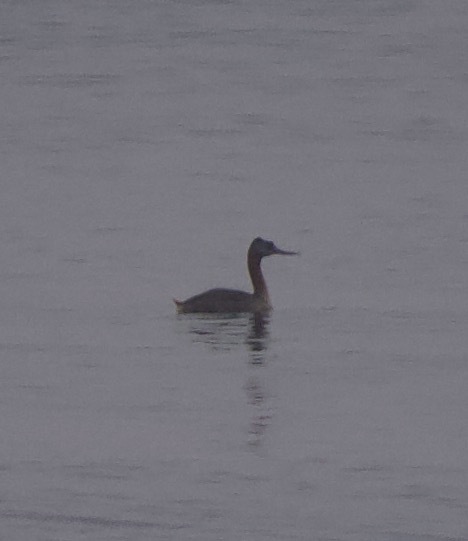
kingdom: Animalia
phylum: Chordata
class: Aves
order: Podicipediformes
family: Podicipedidae
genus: Podiceps
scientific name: Podiceps major
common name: Great grebe
